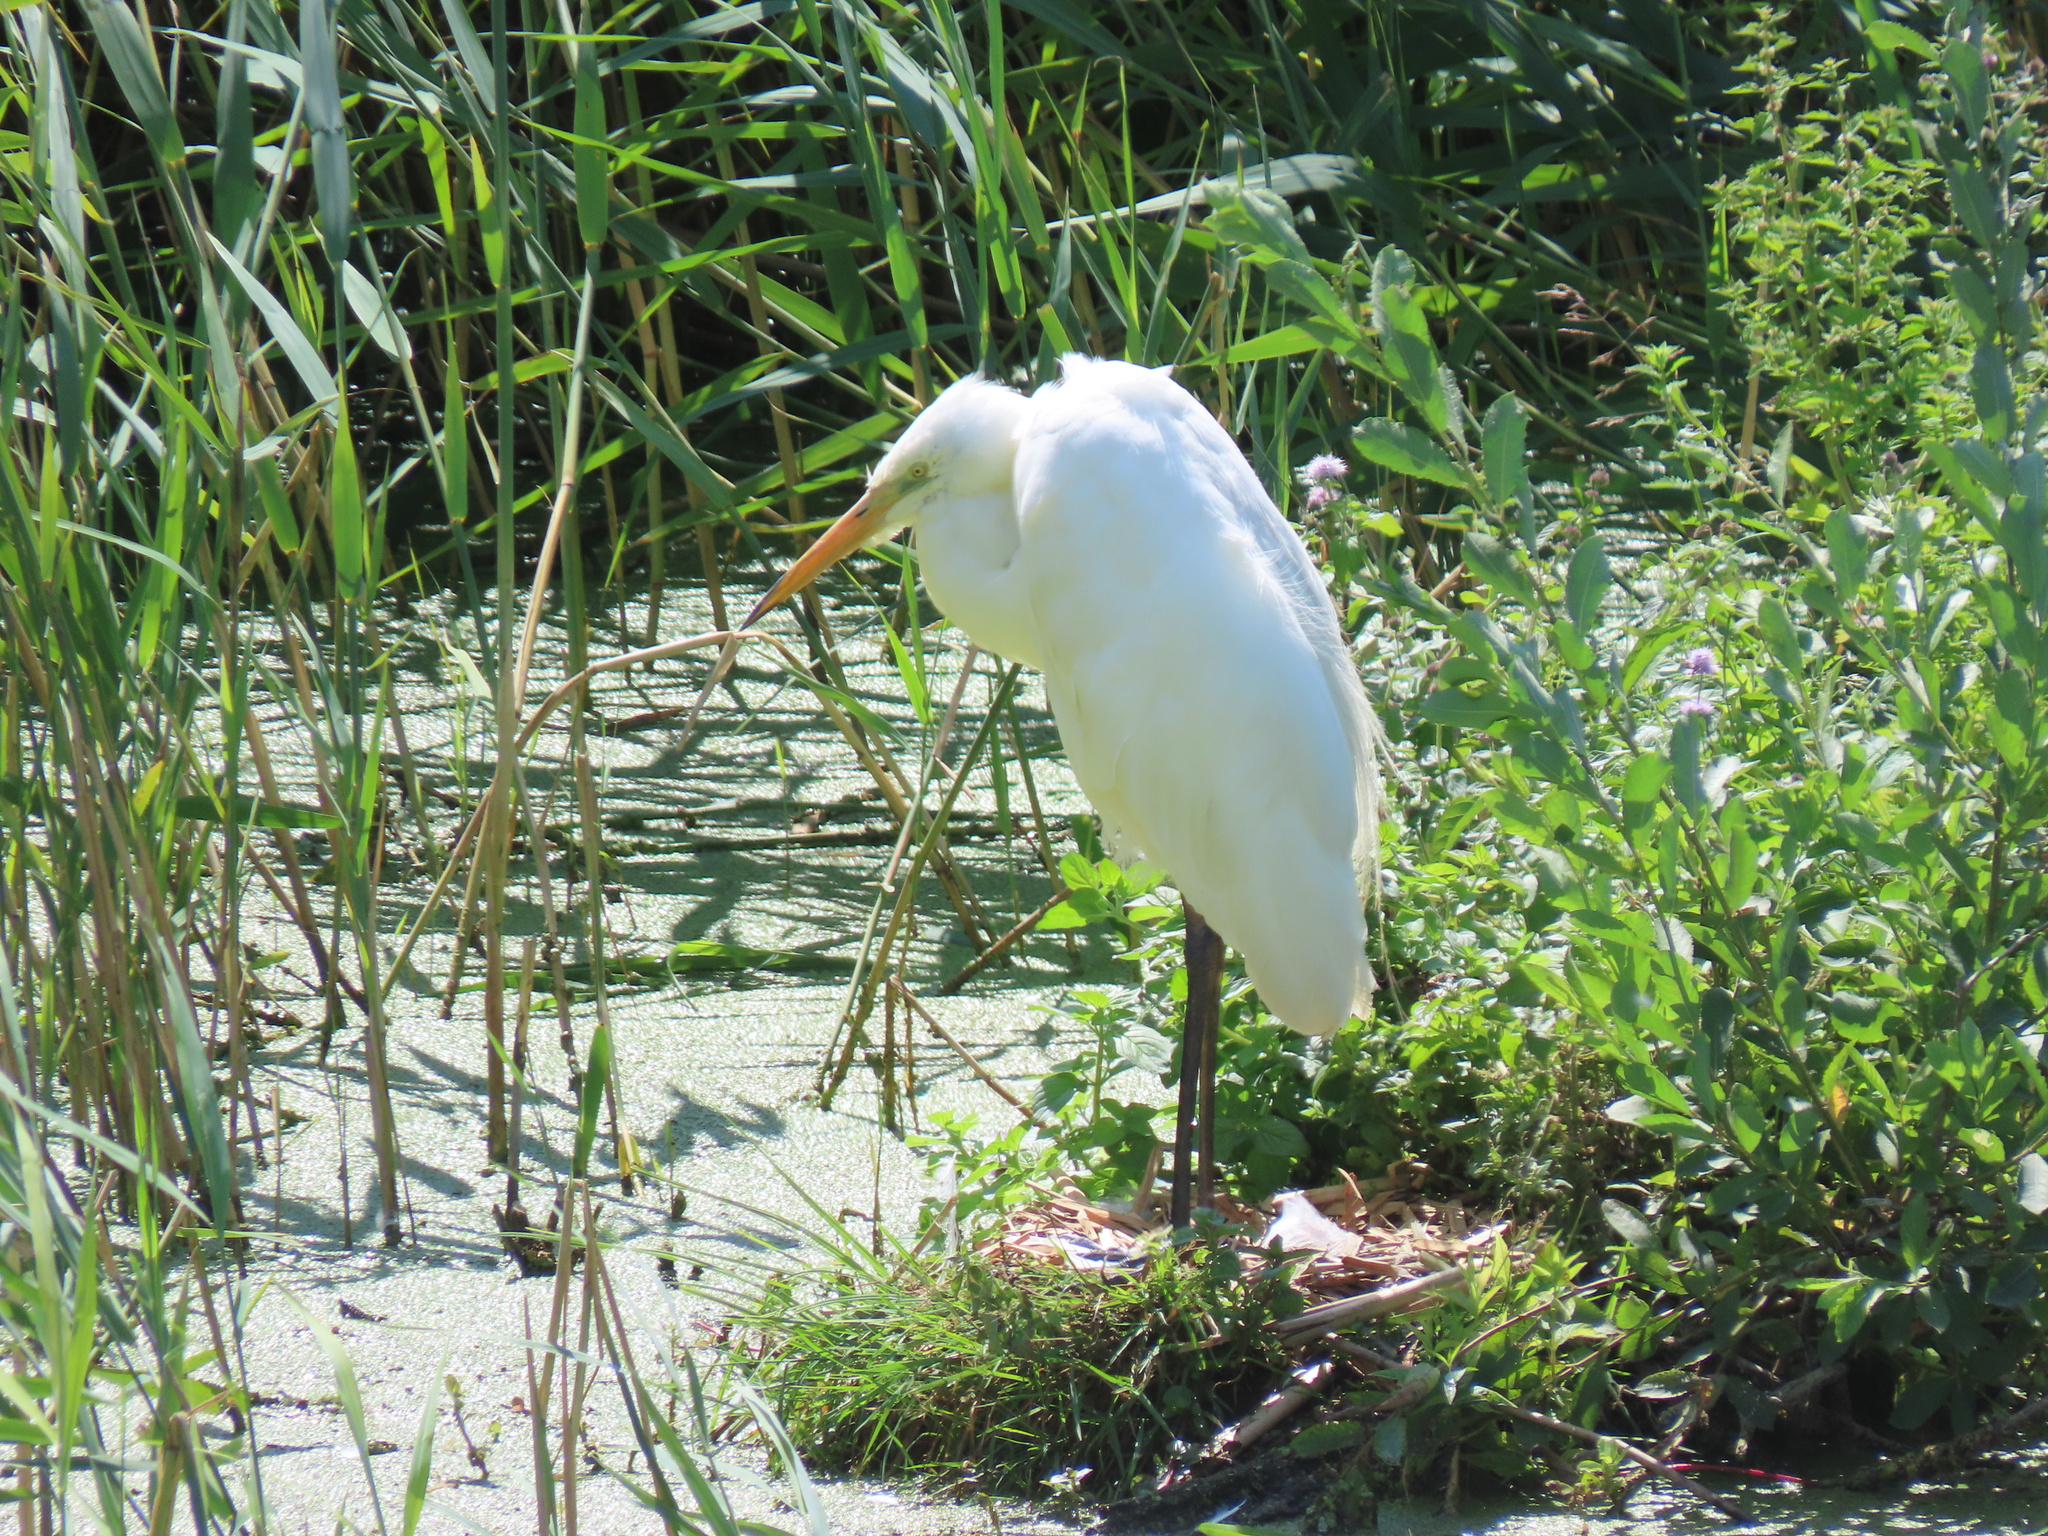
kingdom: Animalia
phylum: Chordata
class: Aves
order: Pelecaniformes
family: Ardeidae
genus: Ardea
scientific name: Ardea alba
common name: Great egret
